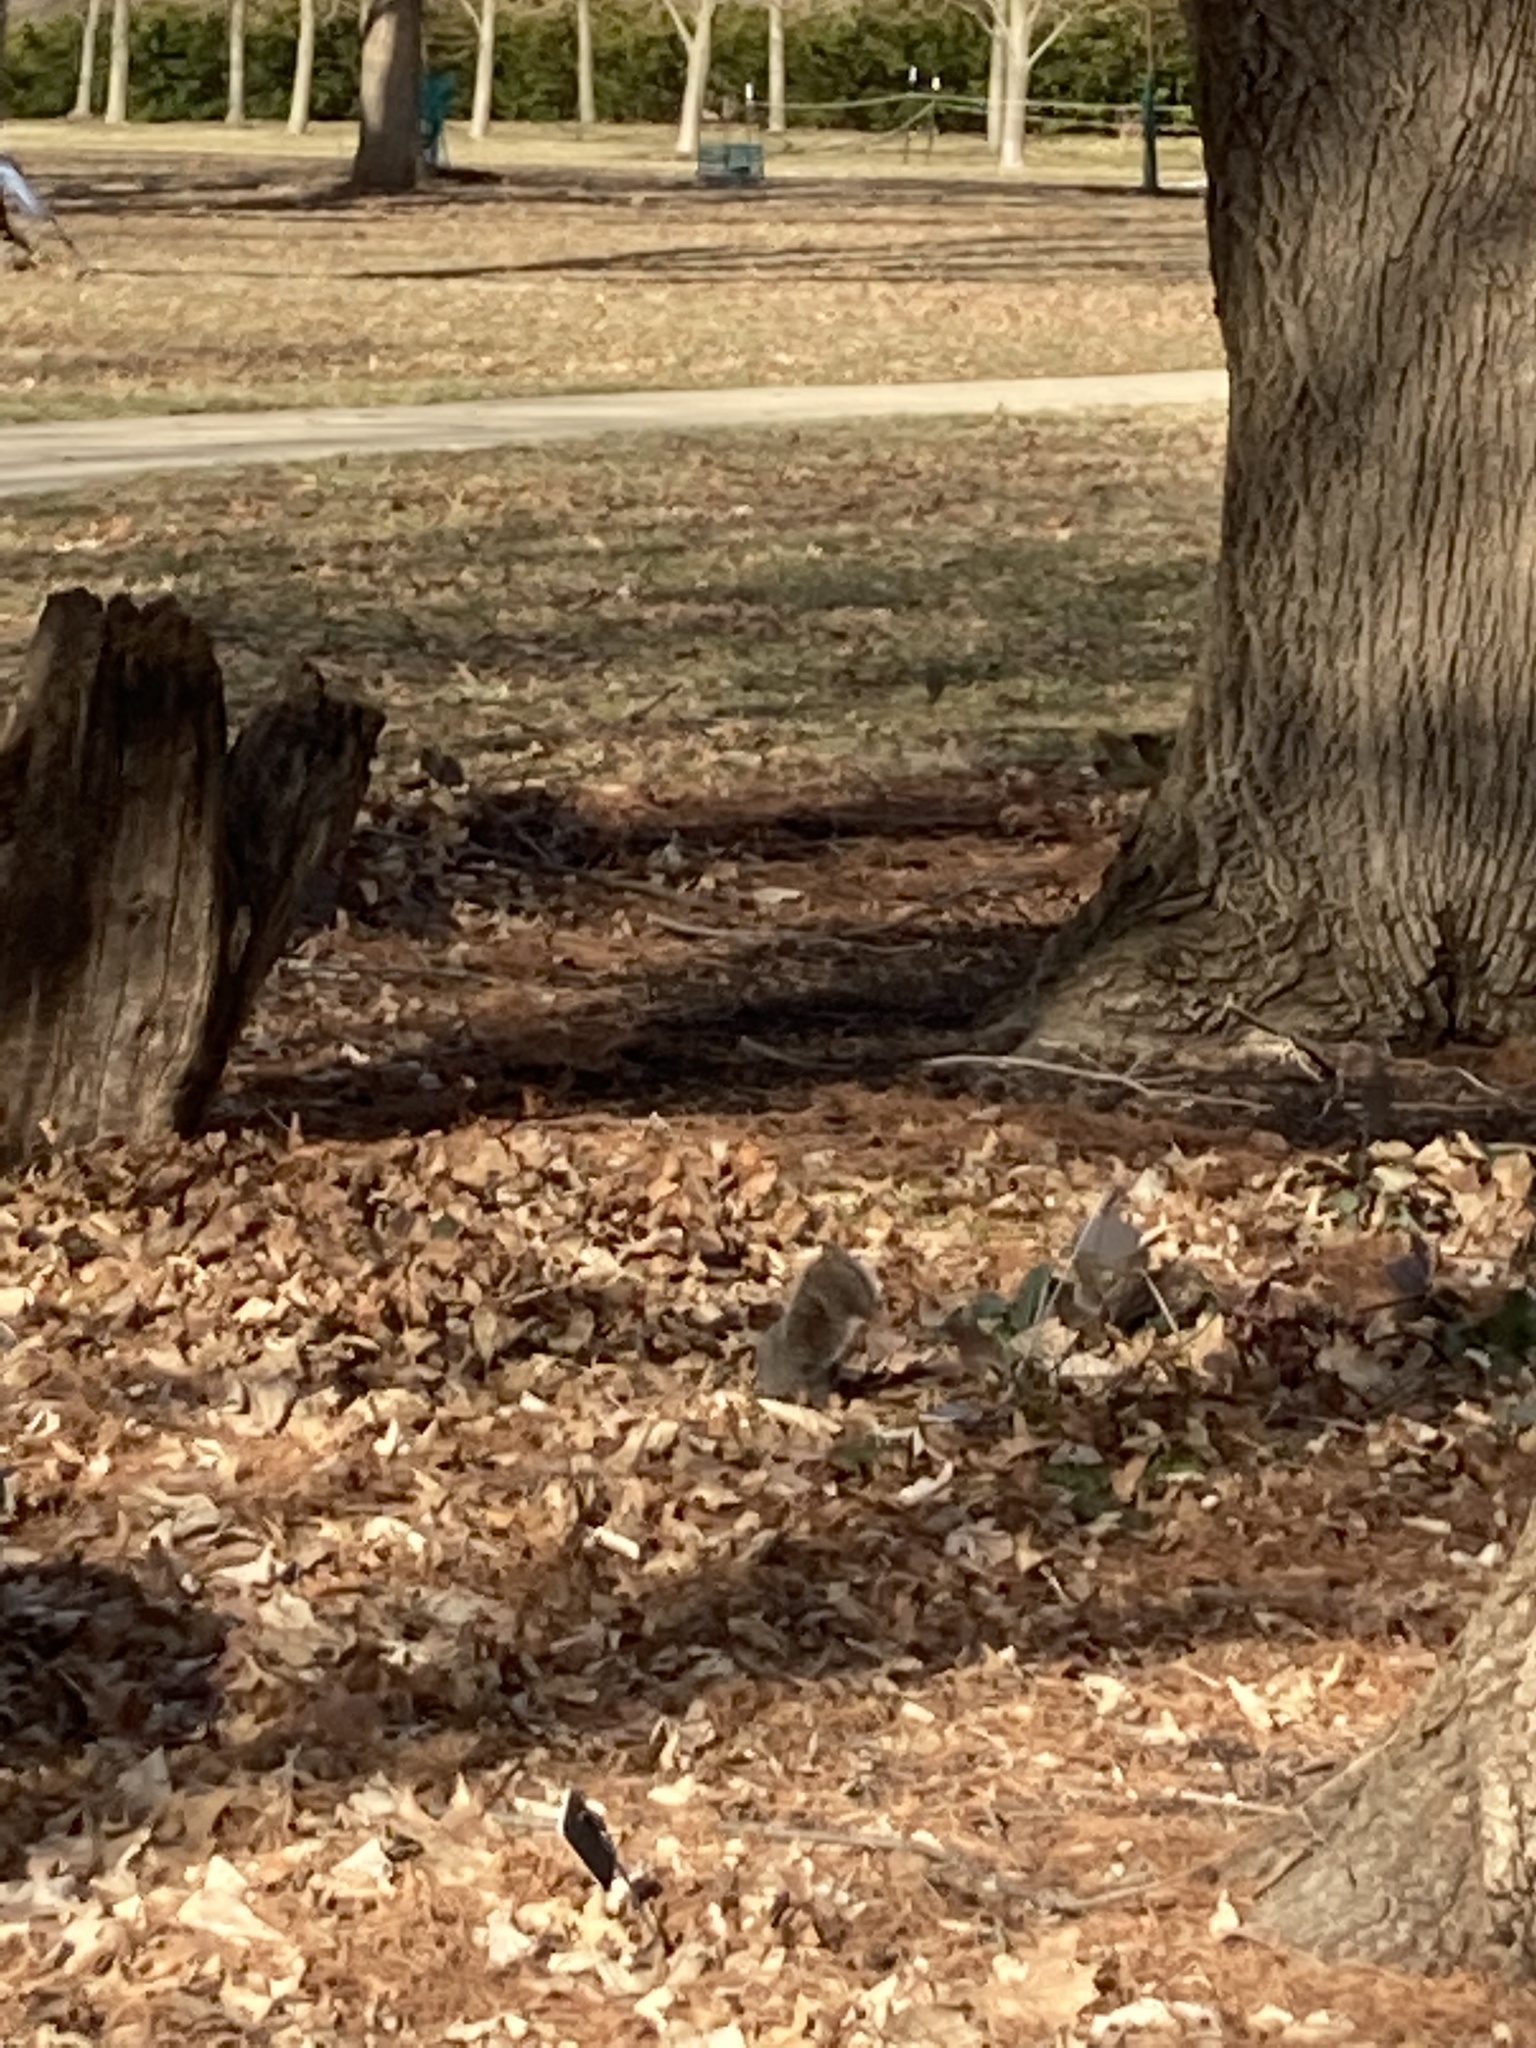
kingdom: Animalia
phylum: Chordata
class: Mammalia
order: Rodentia
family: Sciuridae
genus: Sciurus
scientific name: Sciurus carolinensis
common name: Eastern gray squirrel
